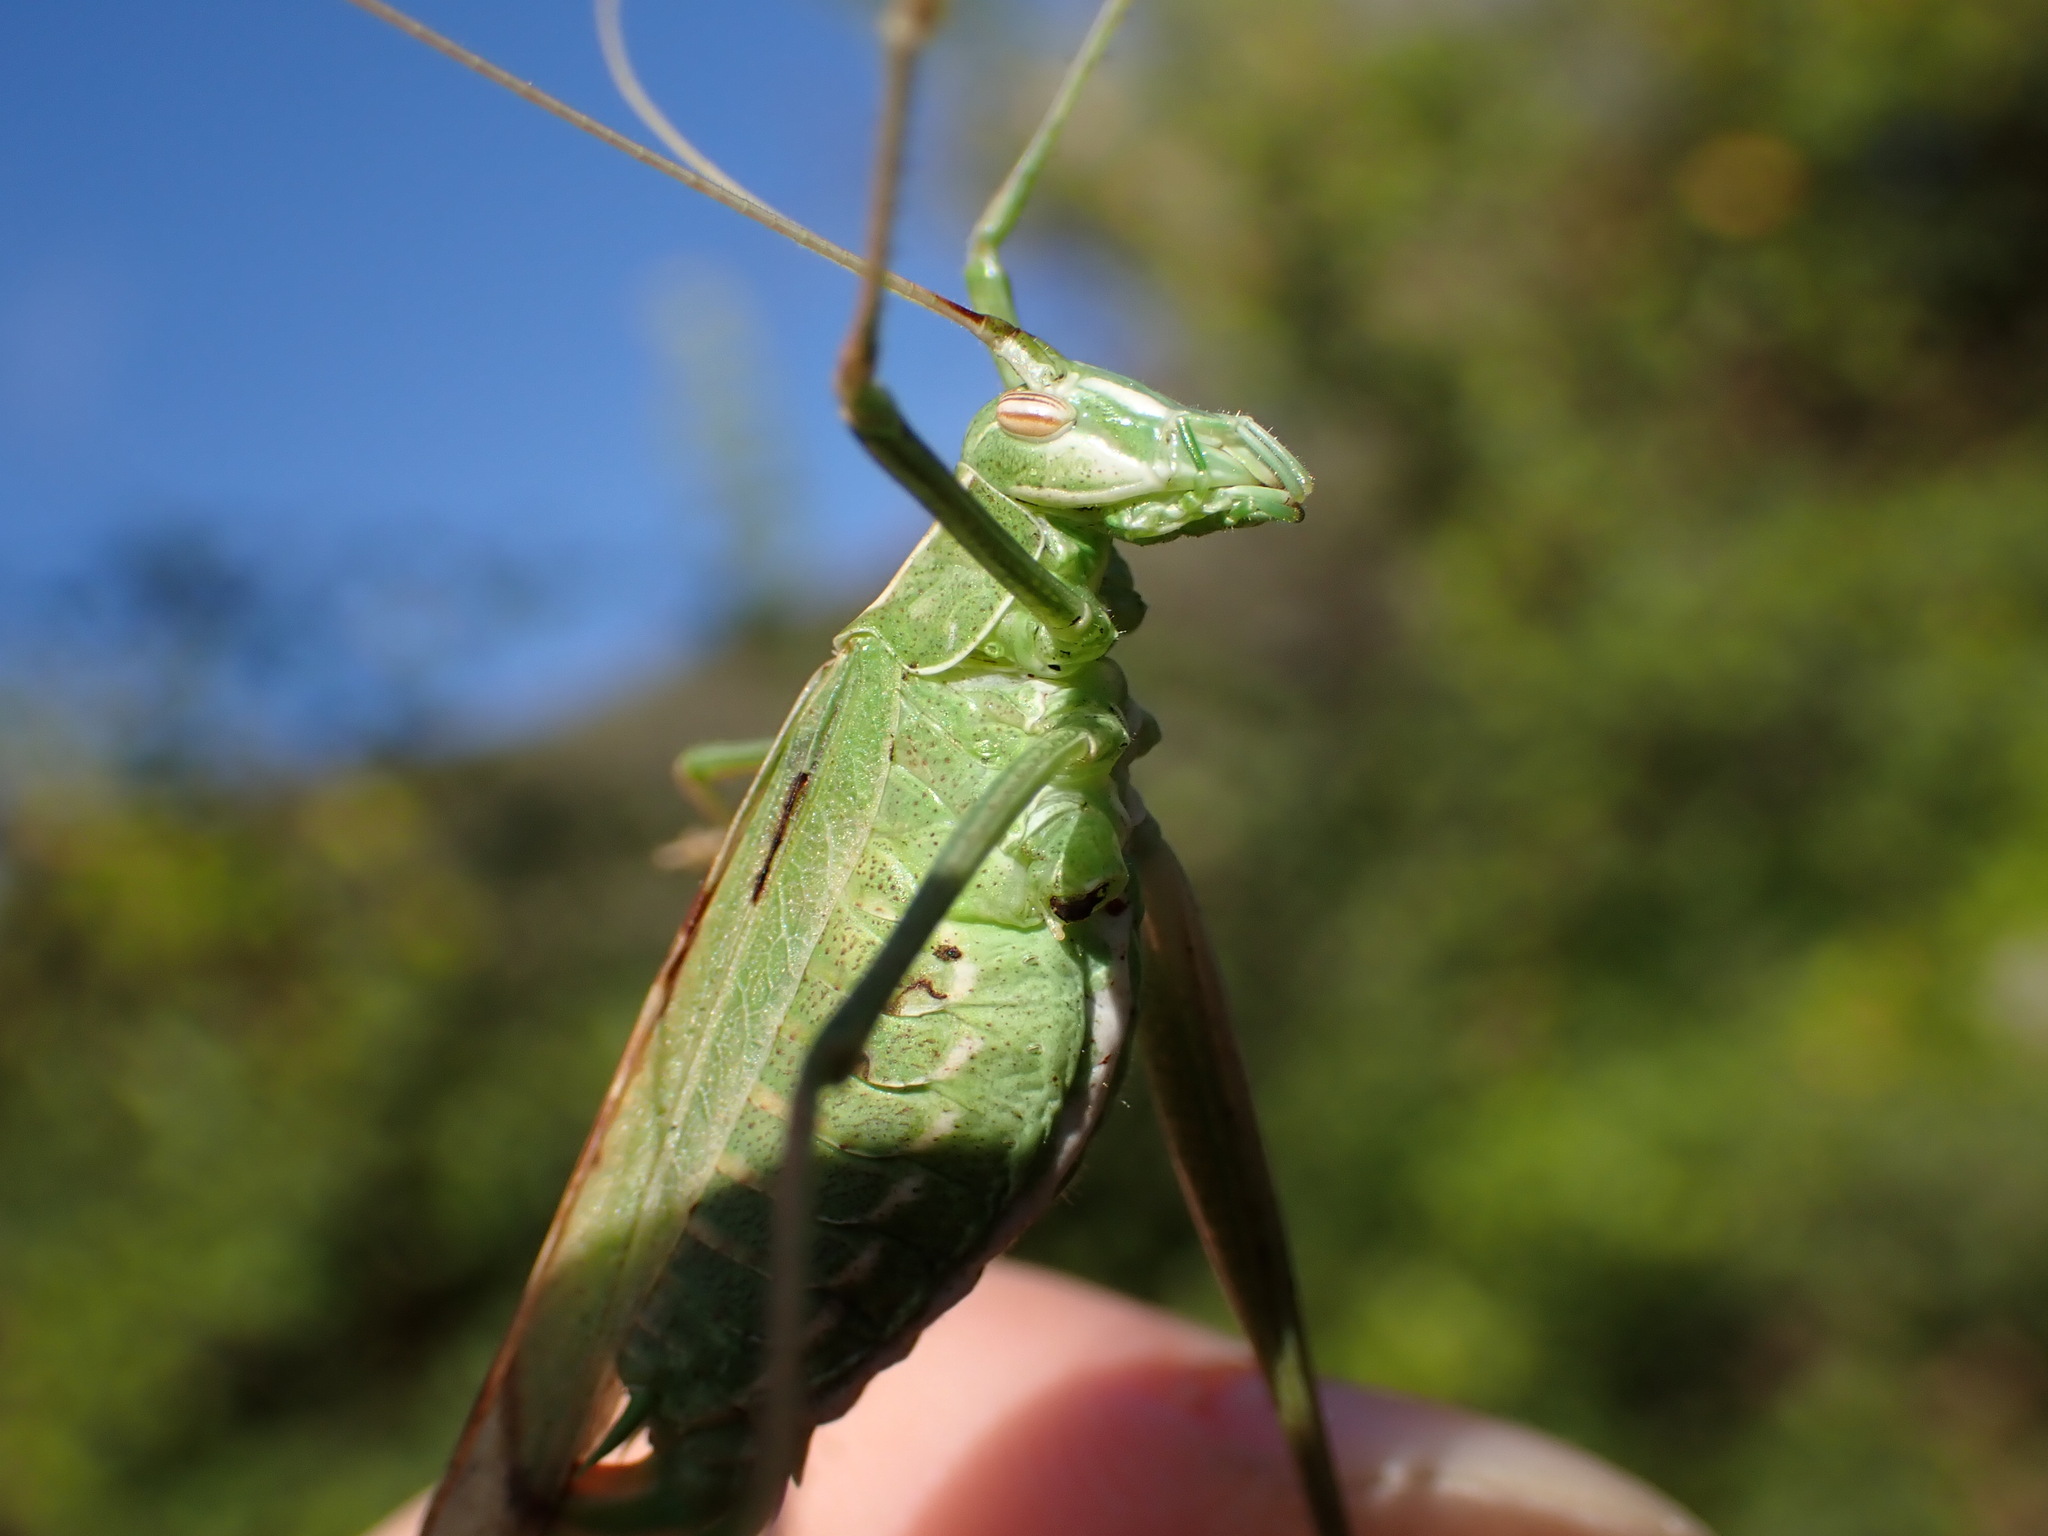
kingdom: Animalia
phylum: Arthropoda
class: Insecta
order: Orthoptera
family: Tettigoniidae
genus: Tylopsis
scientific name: Tylopsis lilifolia
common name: Lily bush-cricket
